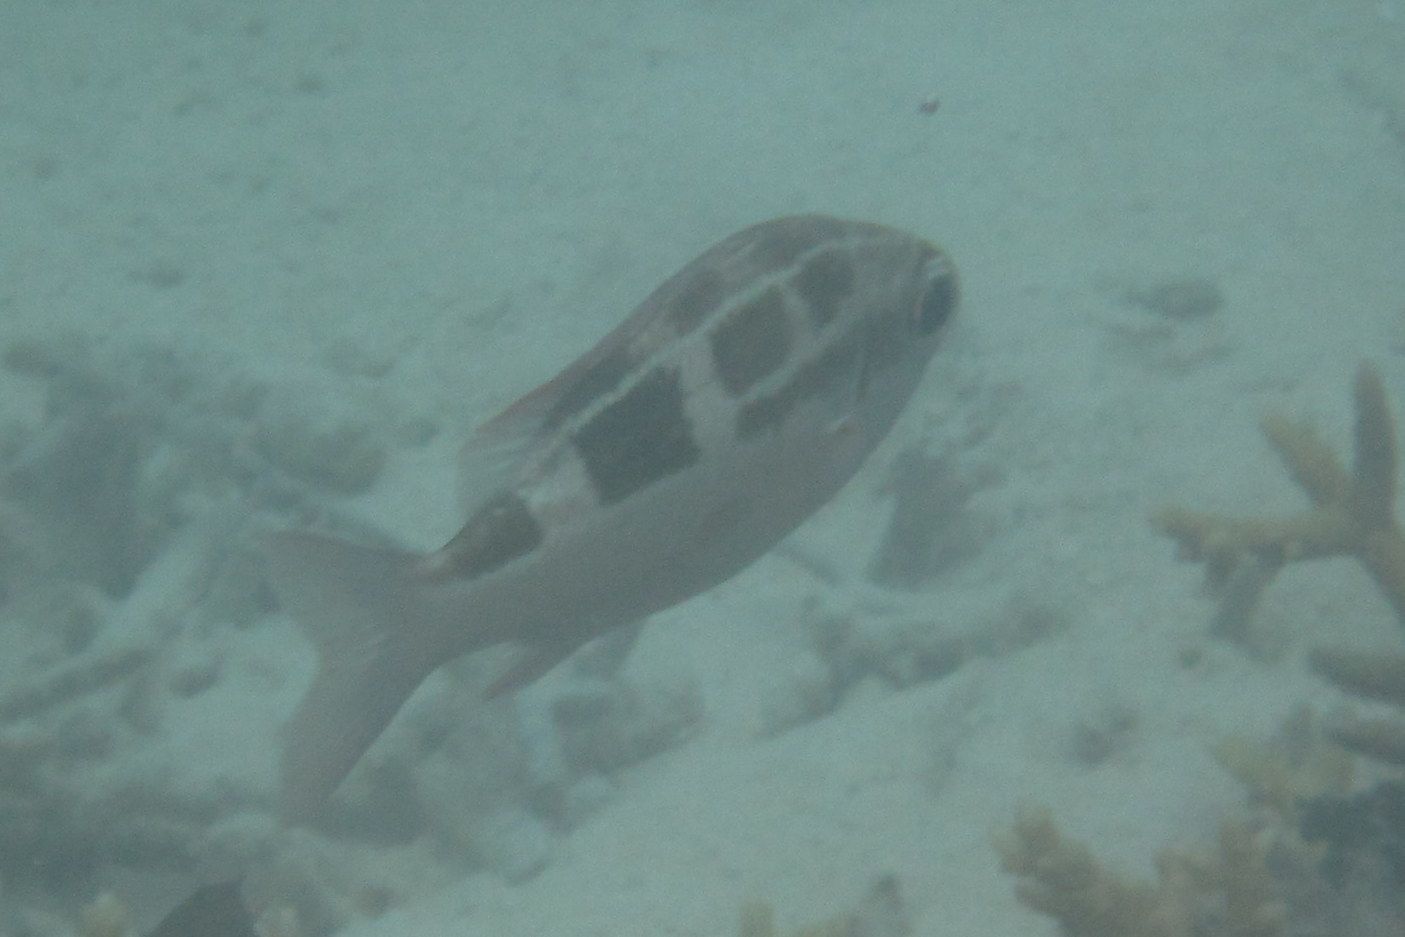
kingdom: Animalia
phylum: Chordata
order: Perciformes
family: Nemipteridae
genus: Scolopsis
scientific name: Scolopsis lineata
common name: Striped monocle bream
